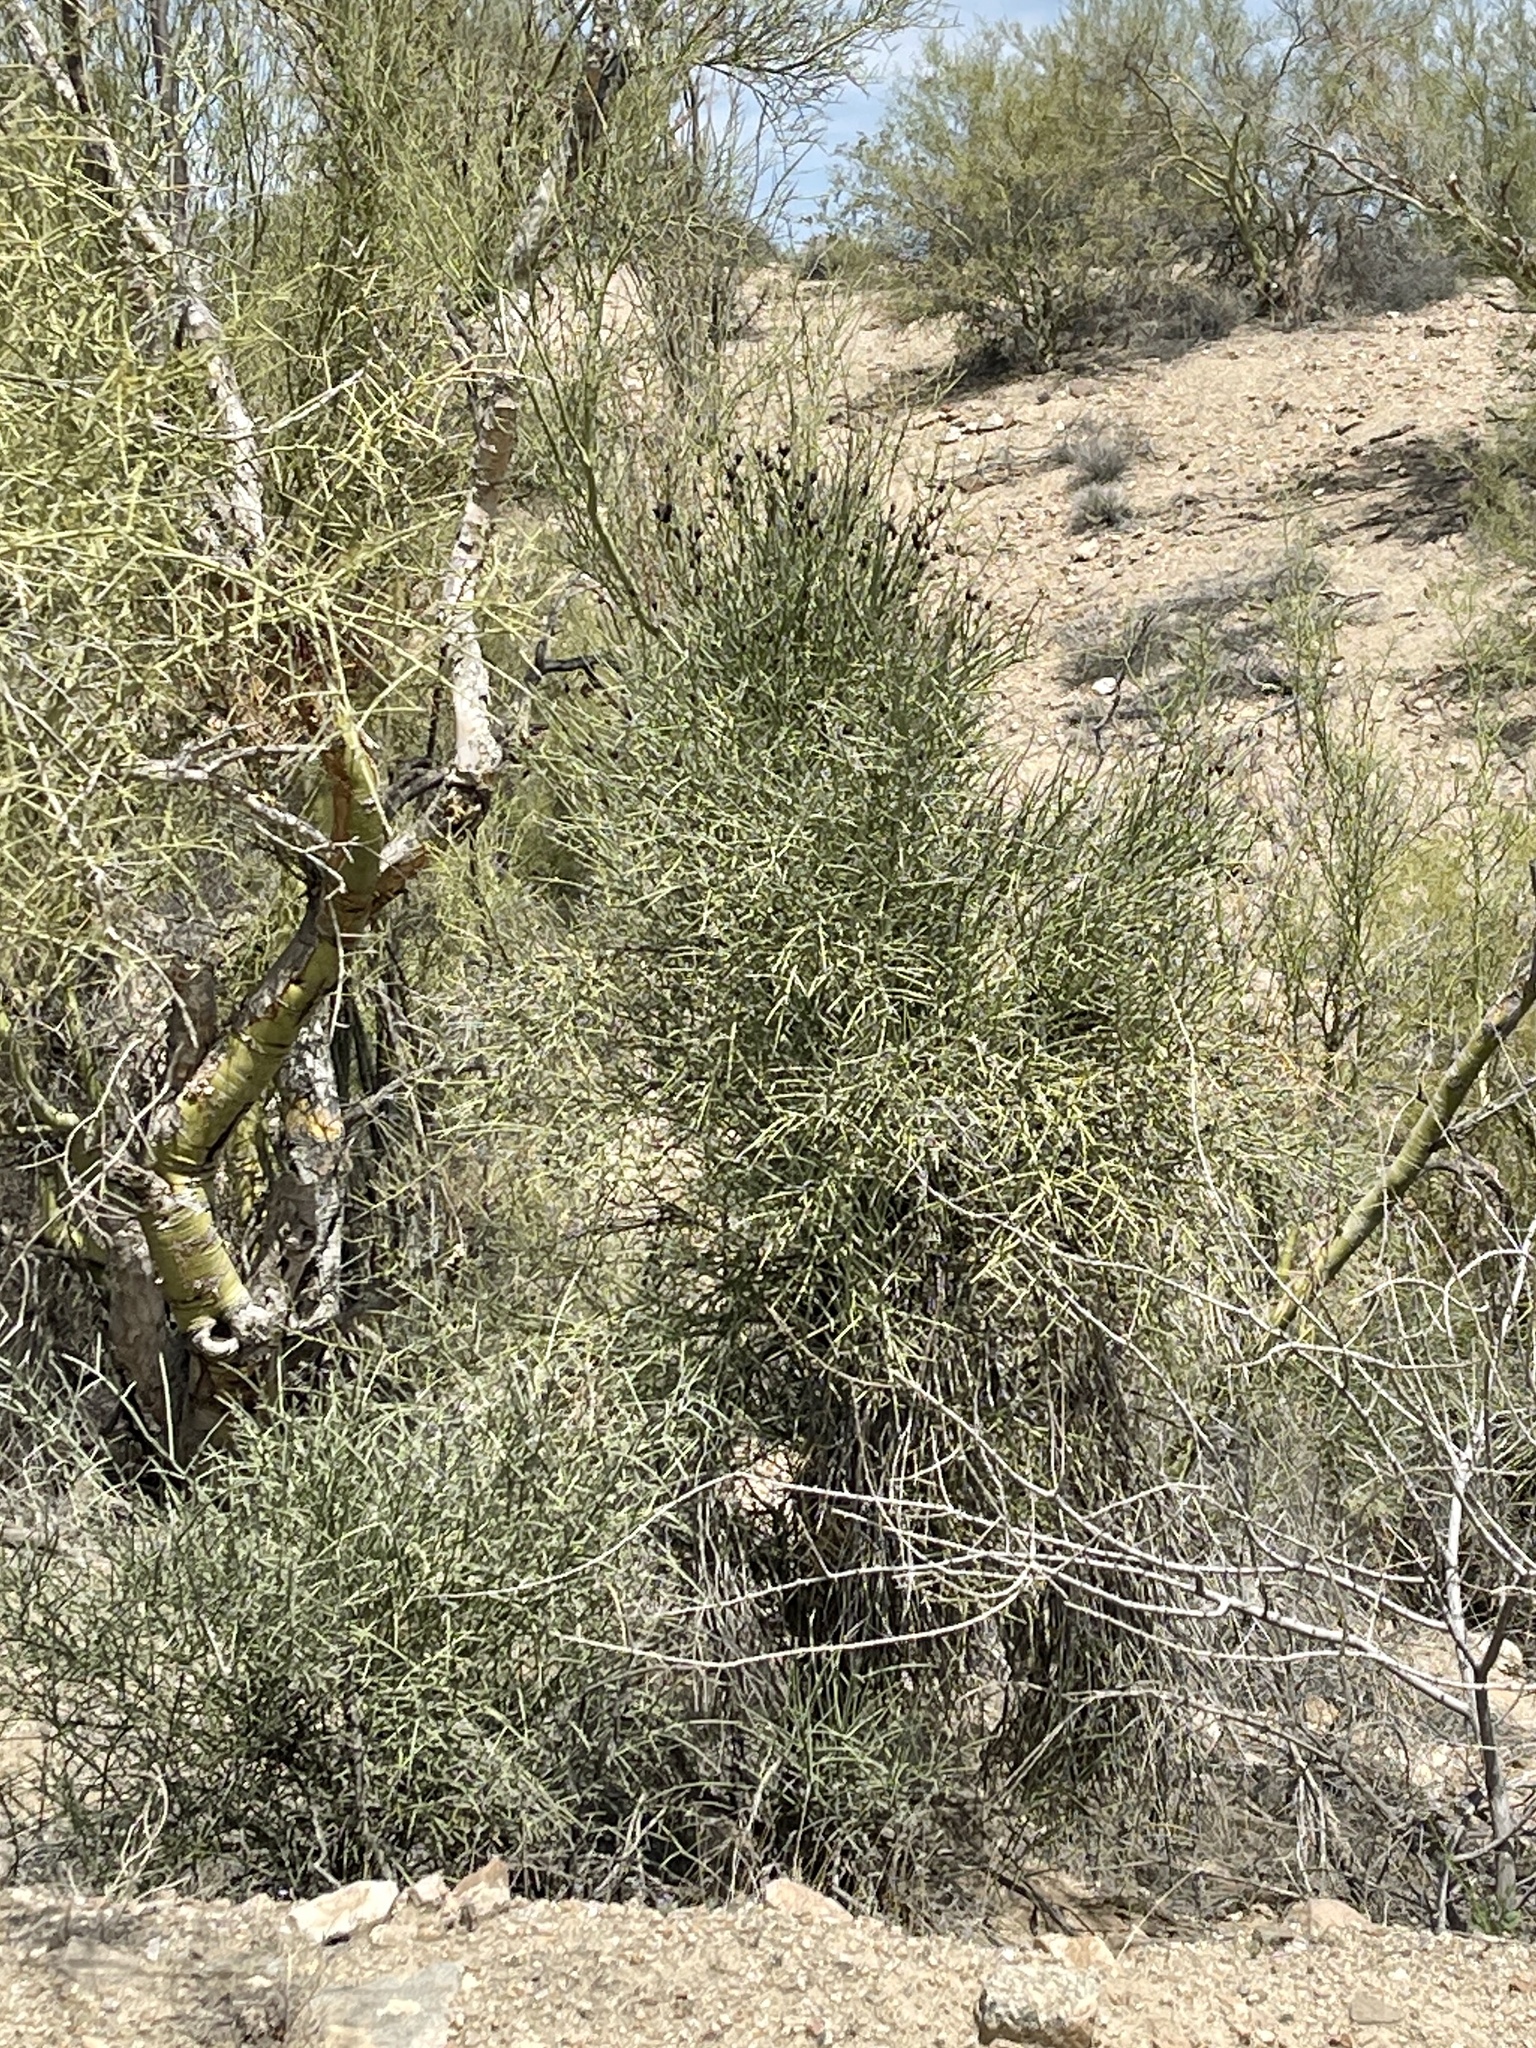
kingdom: Plantae
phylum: Tracheophyta
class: Magnoliopsida
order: Celastrales
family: Celastraceae
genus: Canotia
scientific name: Canotia holacantha
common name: Crucifixion thorns
